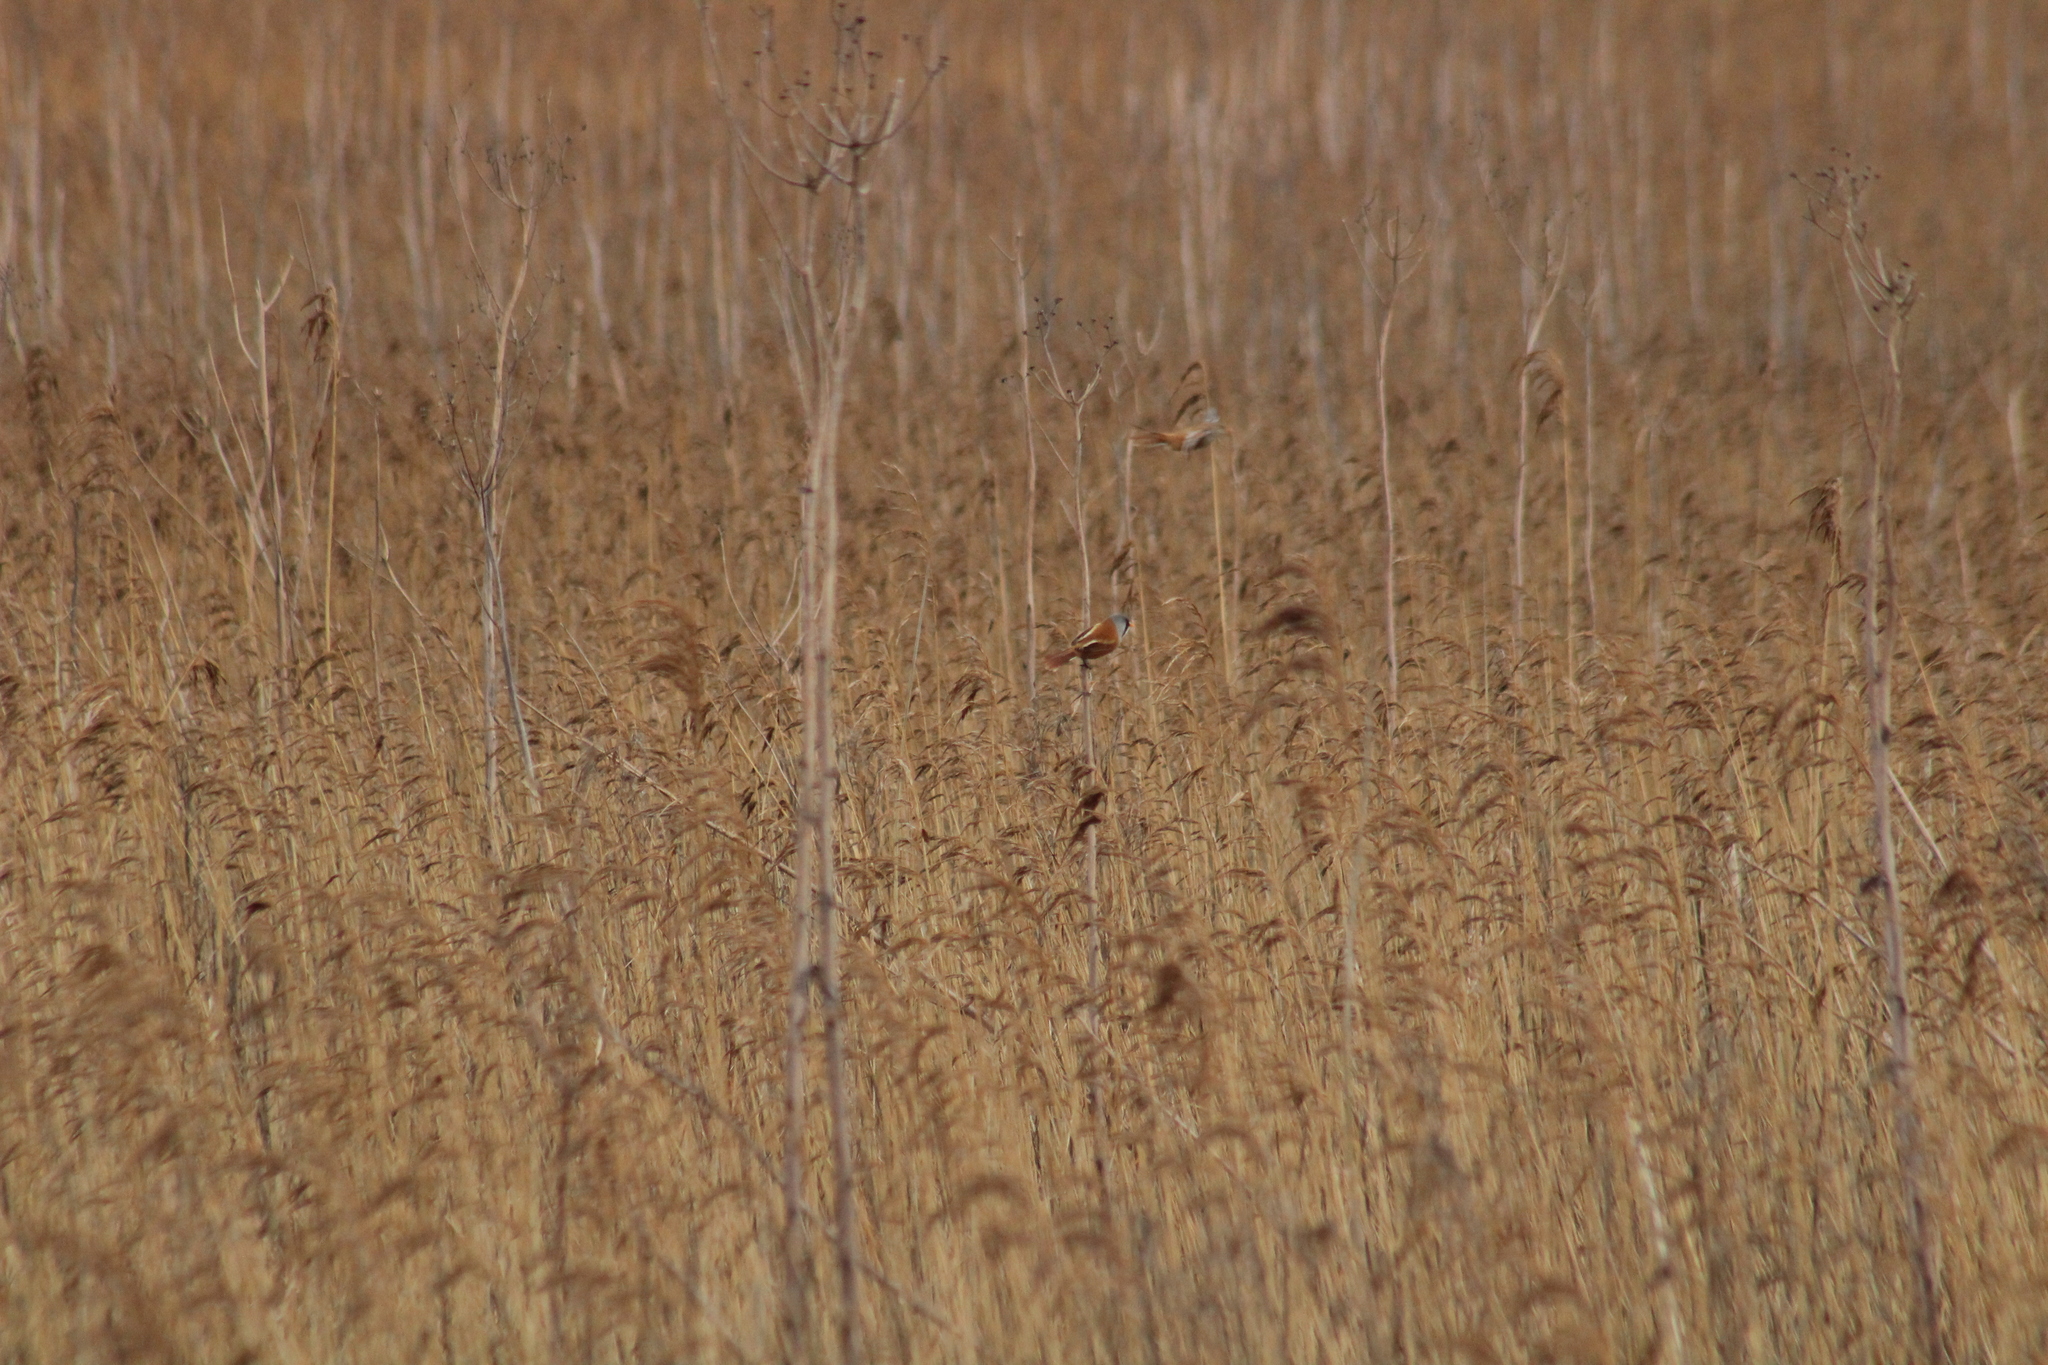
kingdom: Animalia
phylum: Chordata
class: Aves
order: Passeriformes
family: Panuridae
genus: Panurus
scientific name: Panurus biarmicus
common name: Bearded reedling
